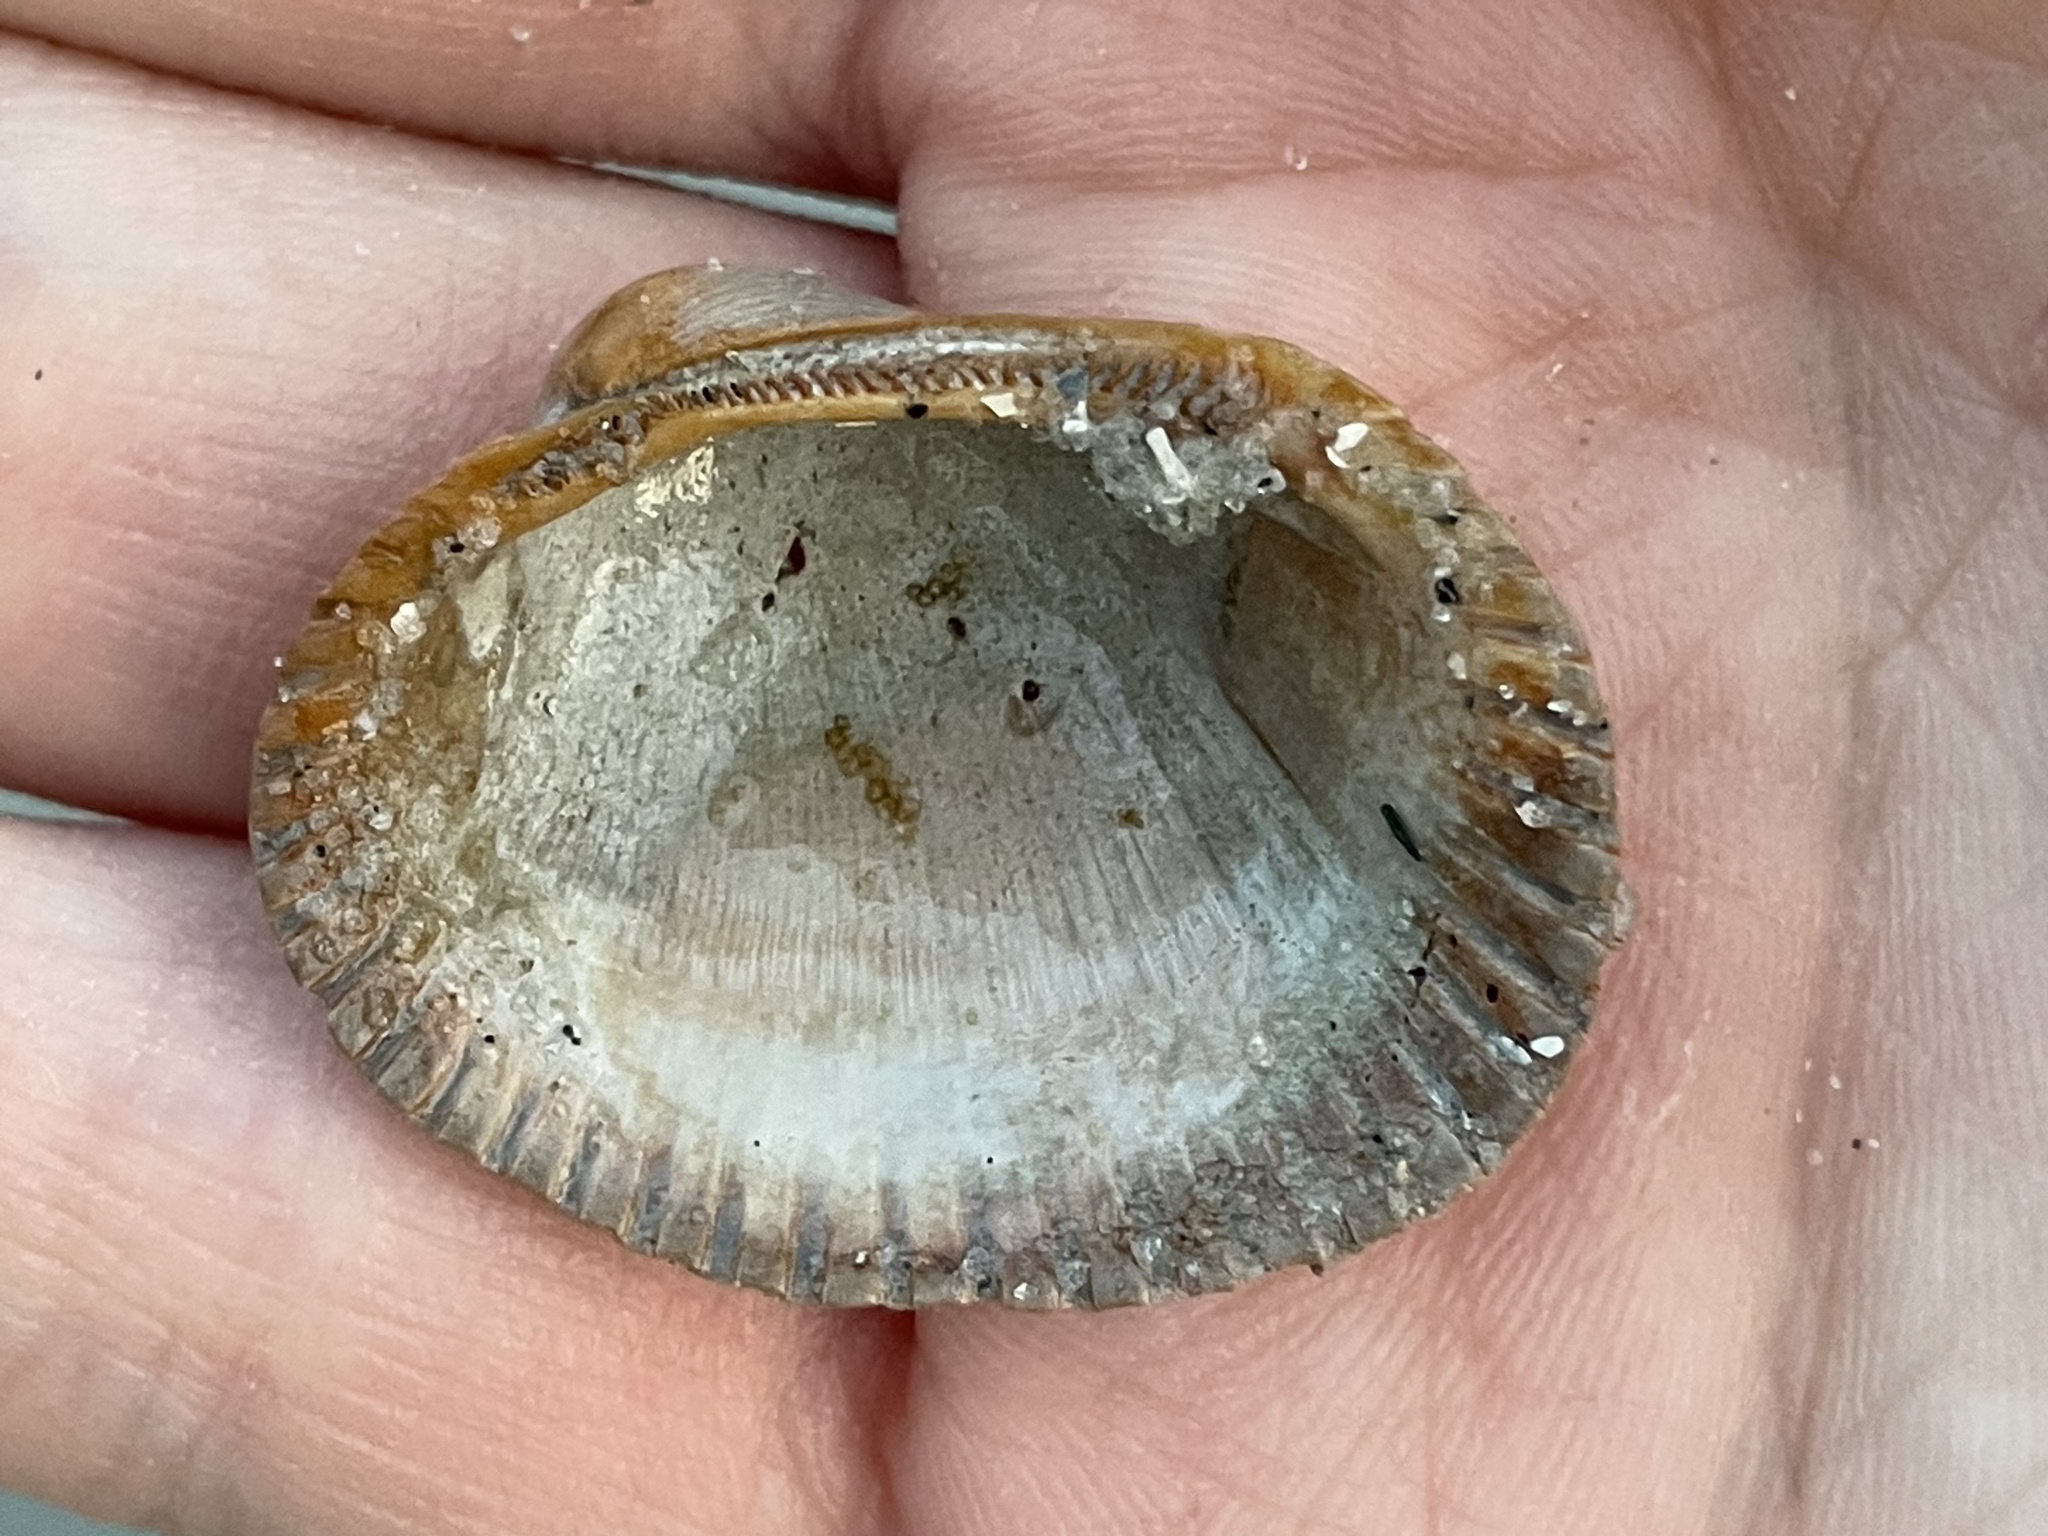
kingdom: Animalia
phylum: Mollusca
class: Bivalvia
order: Arcida
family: Arcidae
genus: Lunarca
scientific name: Lunarca ovalis
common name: Blood ark
